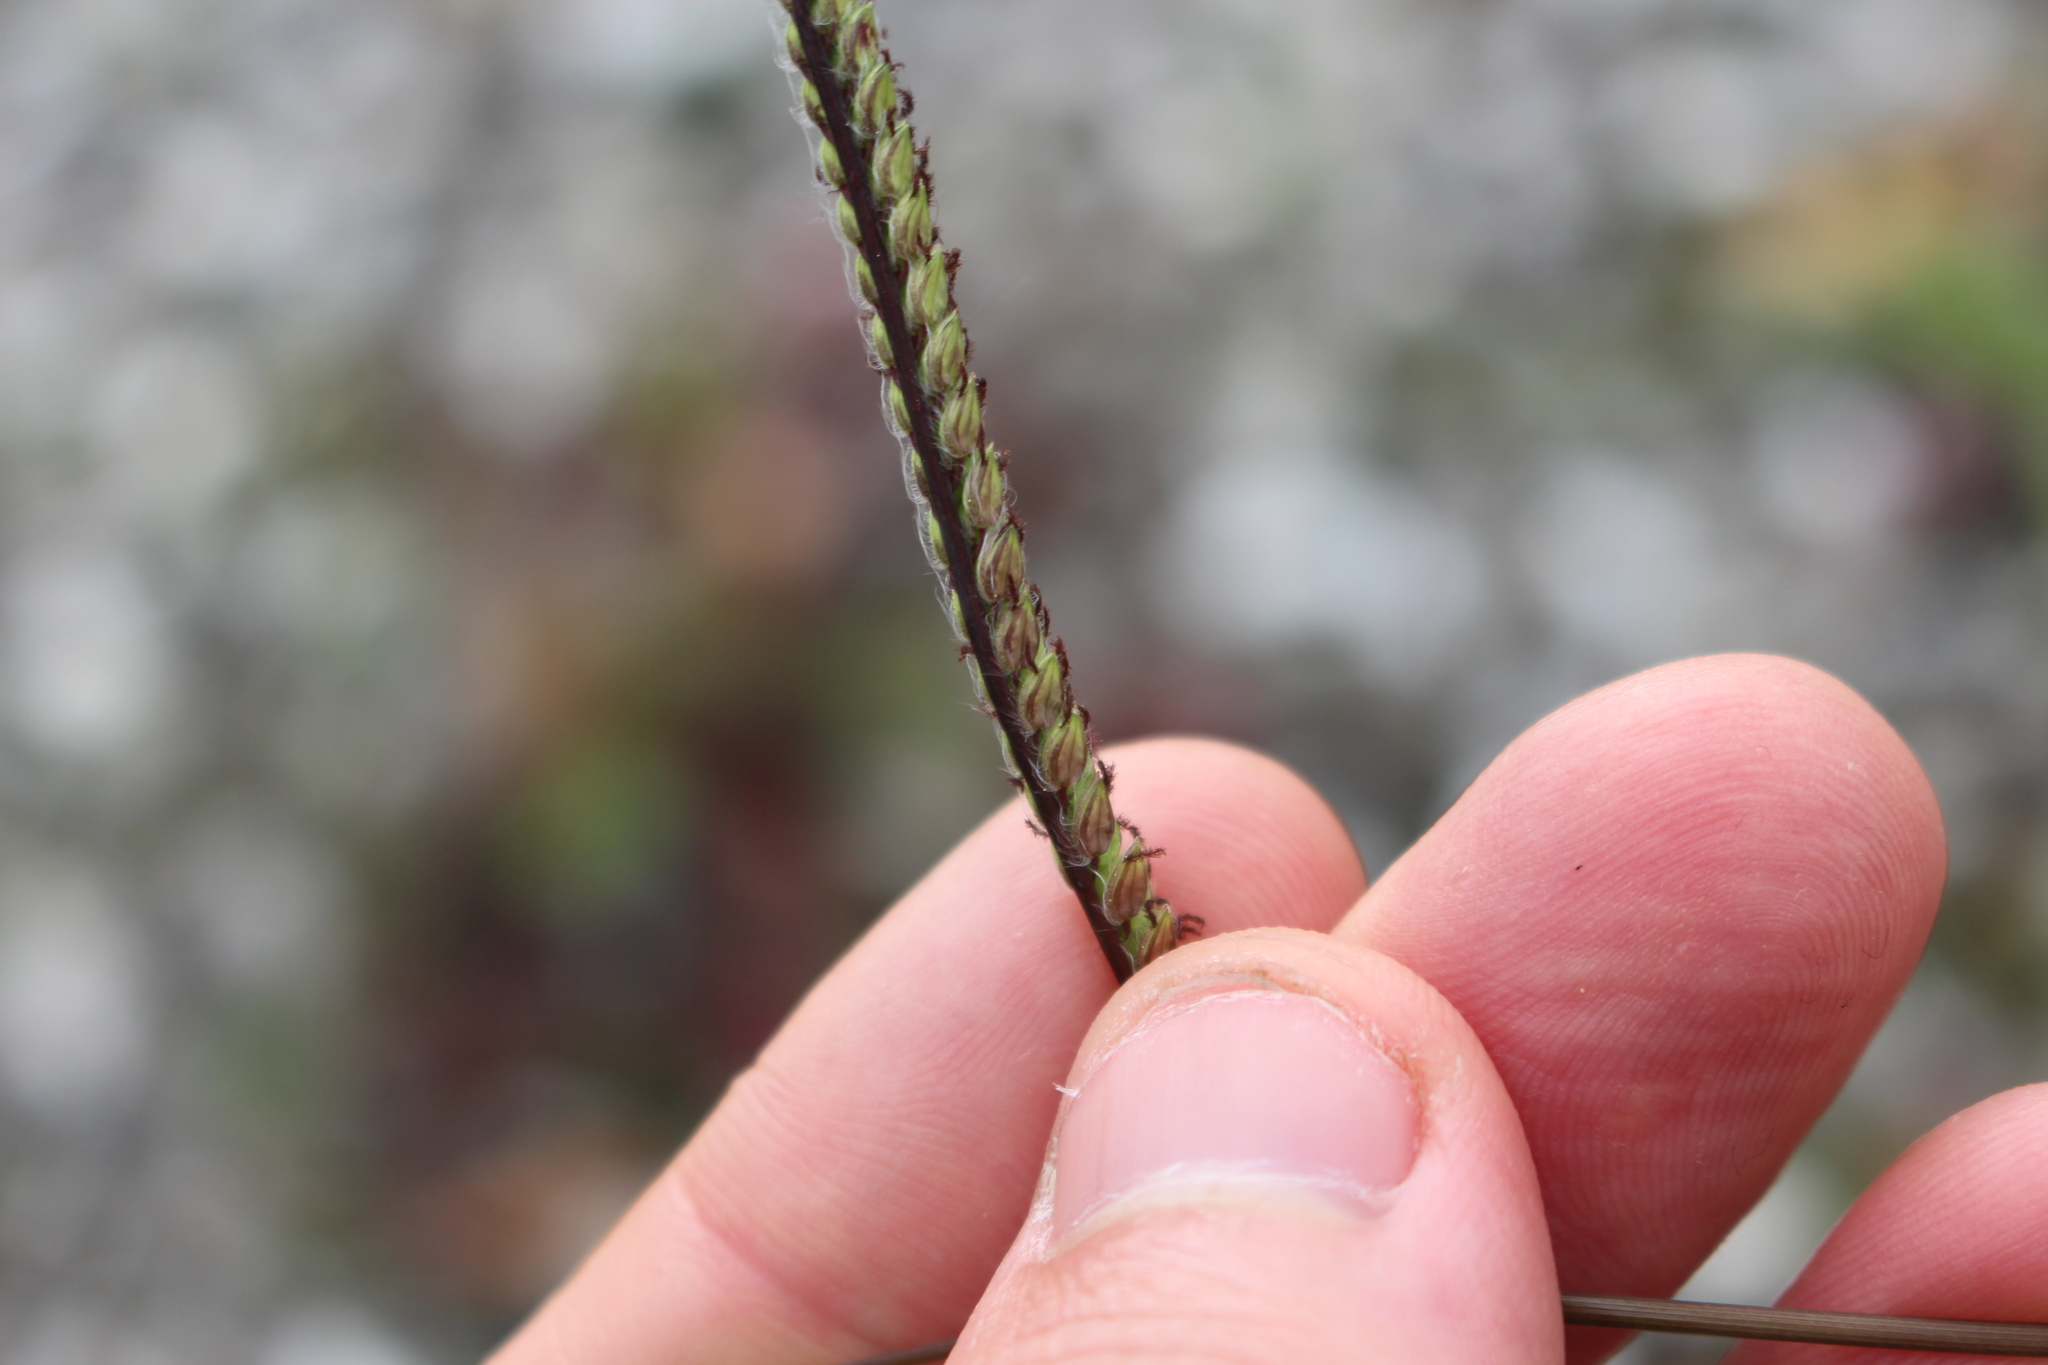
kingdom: Plantae
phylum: Tracheophyta
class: Liliopsida
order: Poales
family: Poaceae
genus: Paspalum
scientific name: Paspalum dilatatum
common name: Dallisgrass
